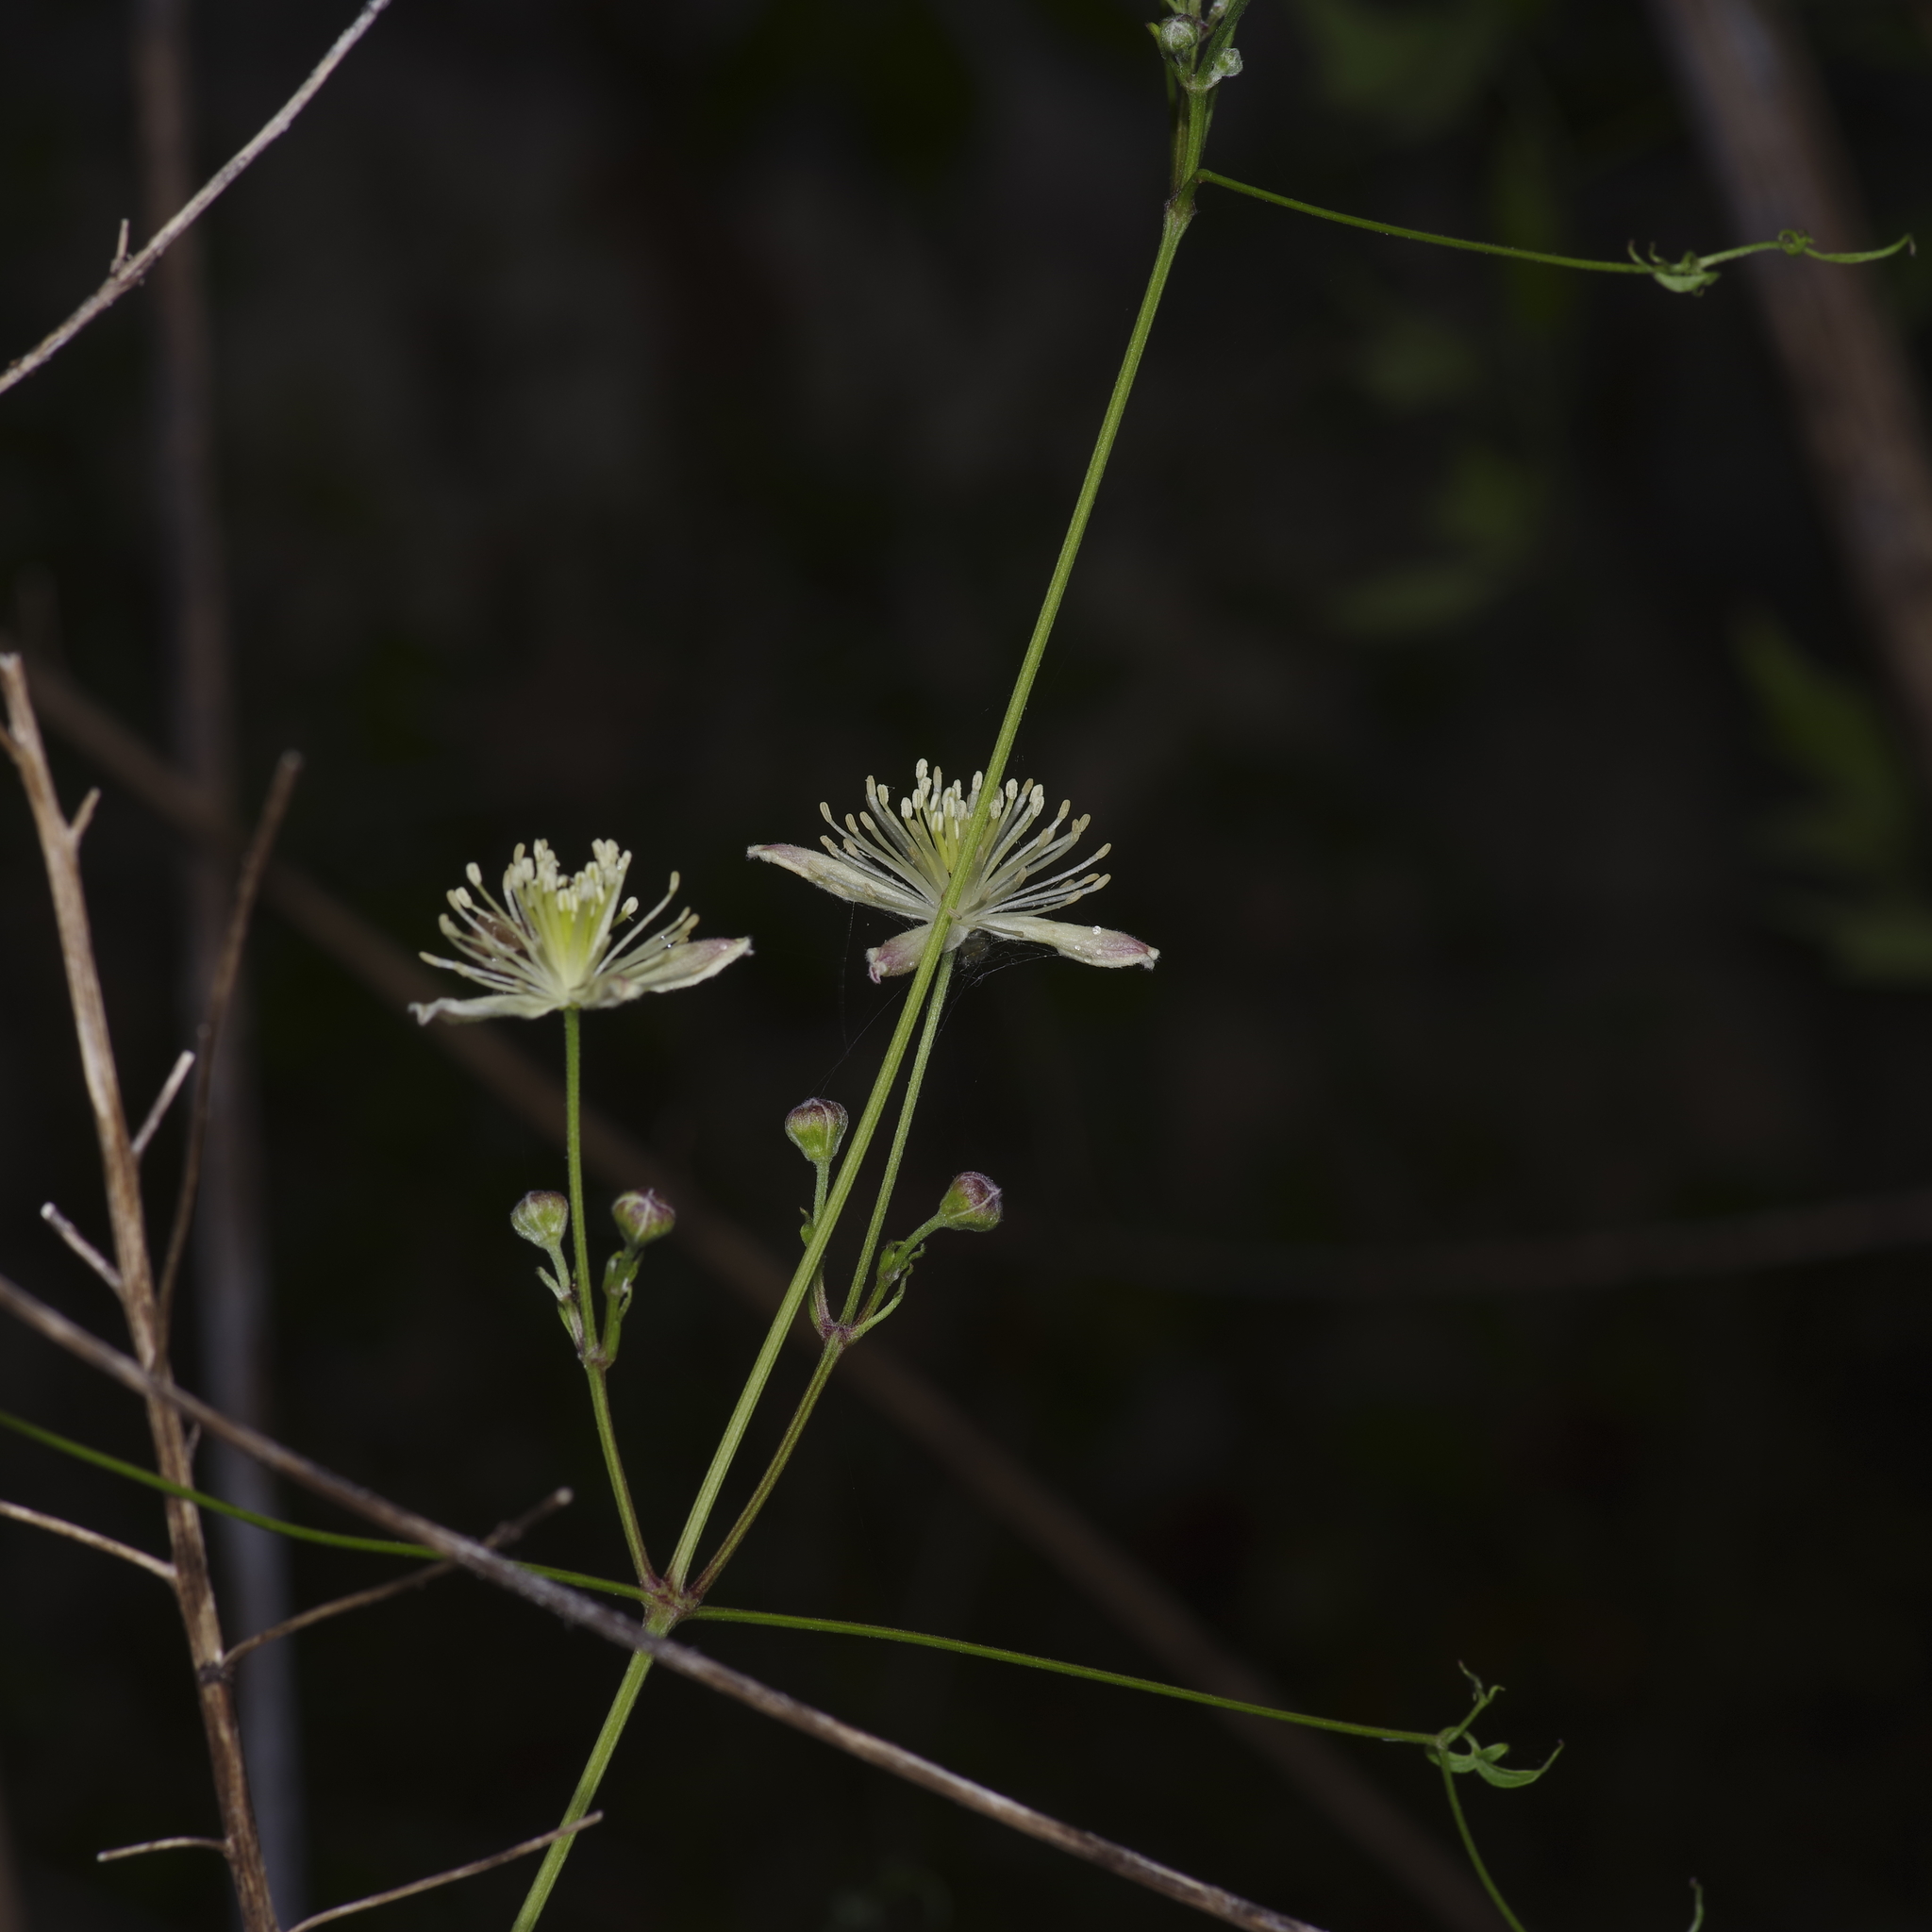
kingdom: Plantae
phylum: Tracheophyta
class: Magnoliopsida
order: Ranunculales
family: Ranunculaceae
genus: Clematis
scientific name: Clematis drummondii
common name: Texas virgin's bower
